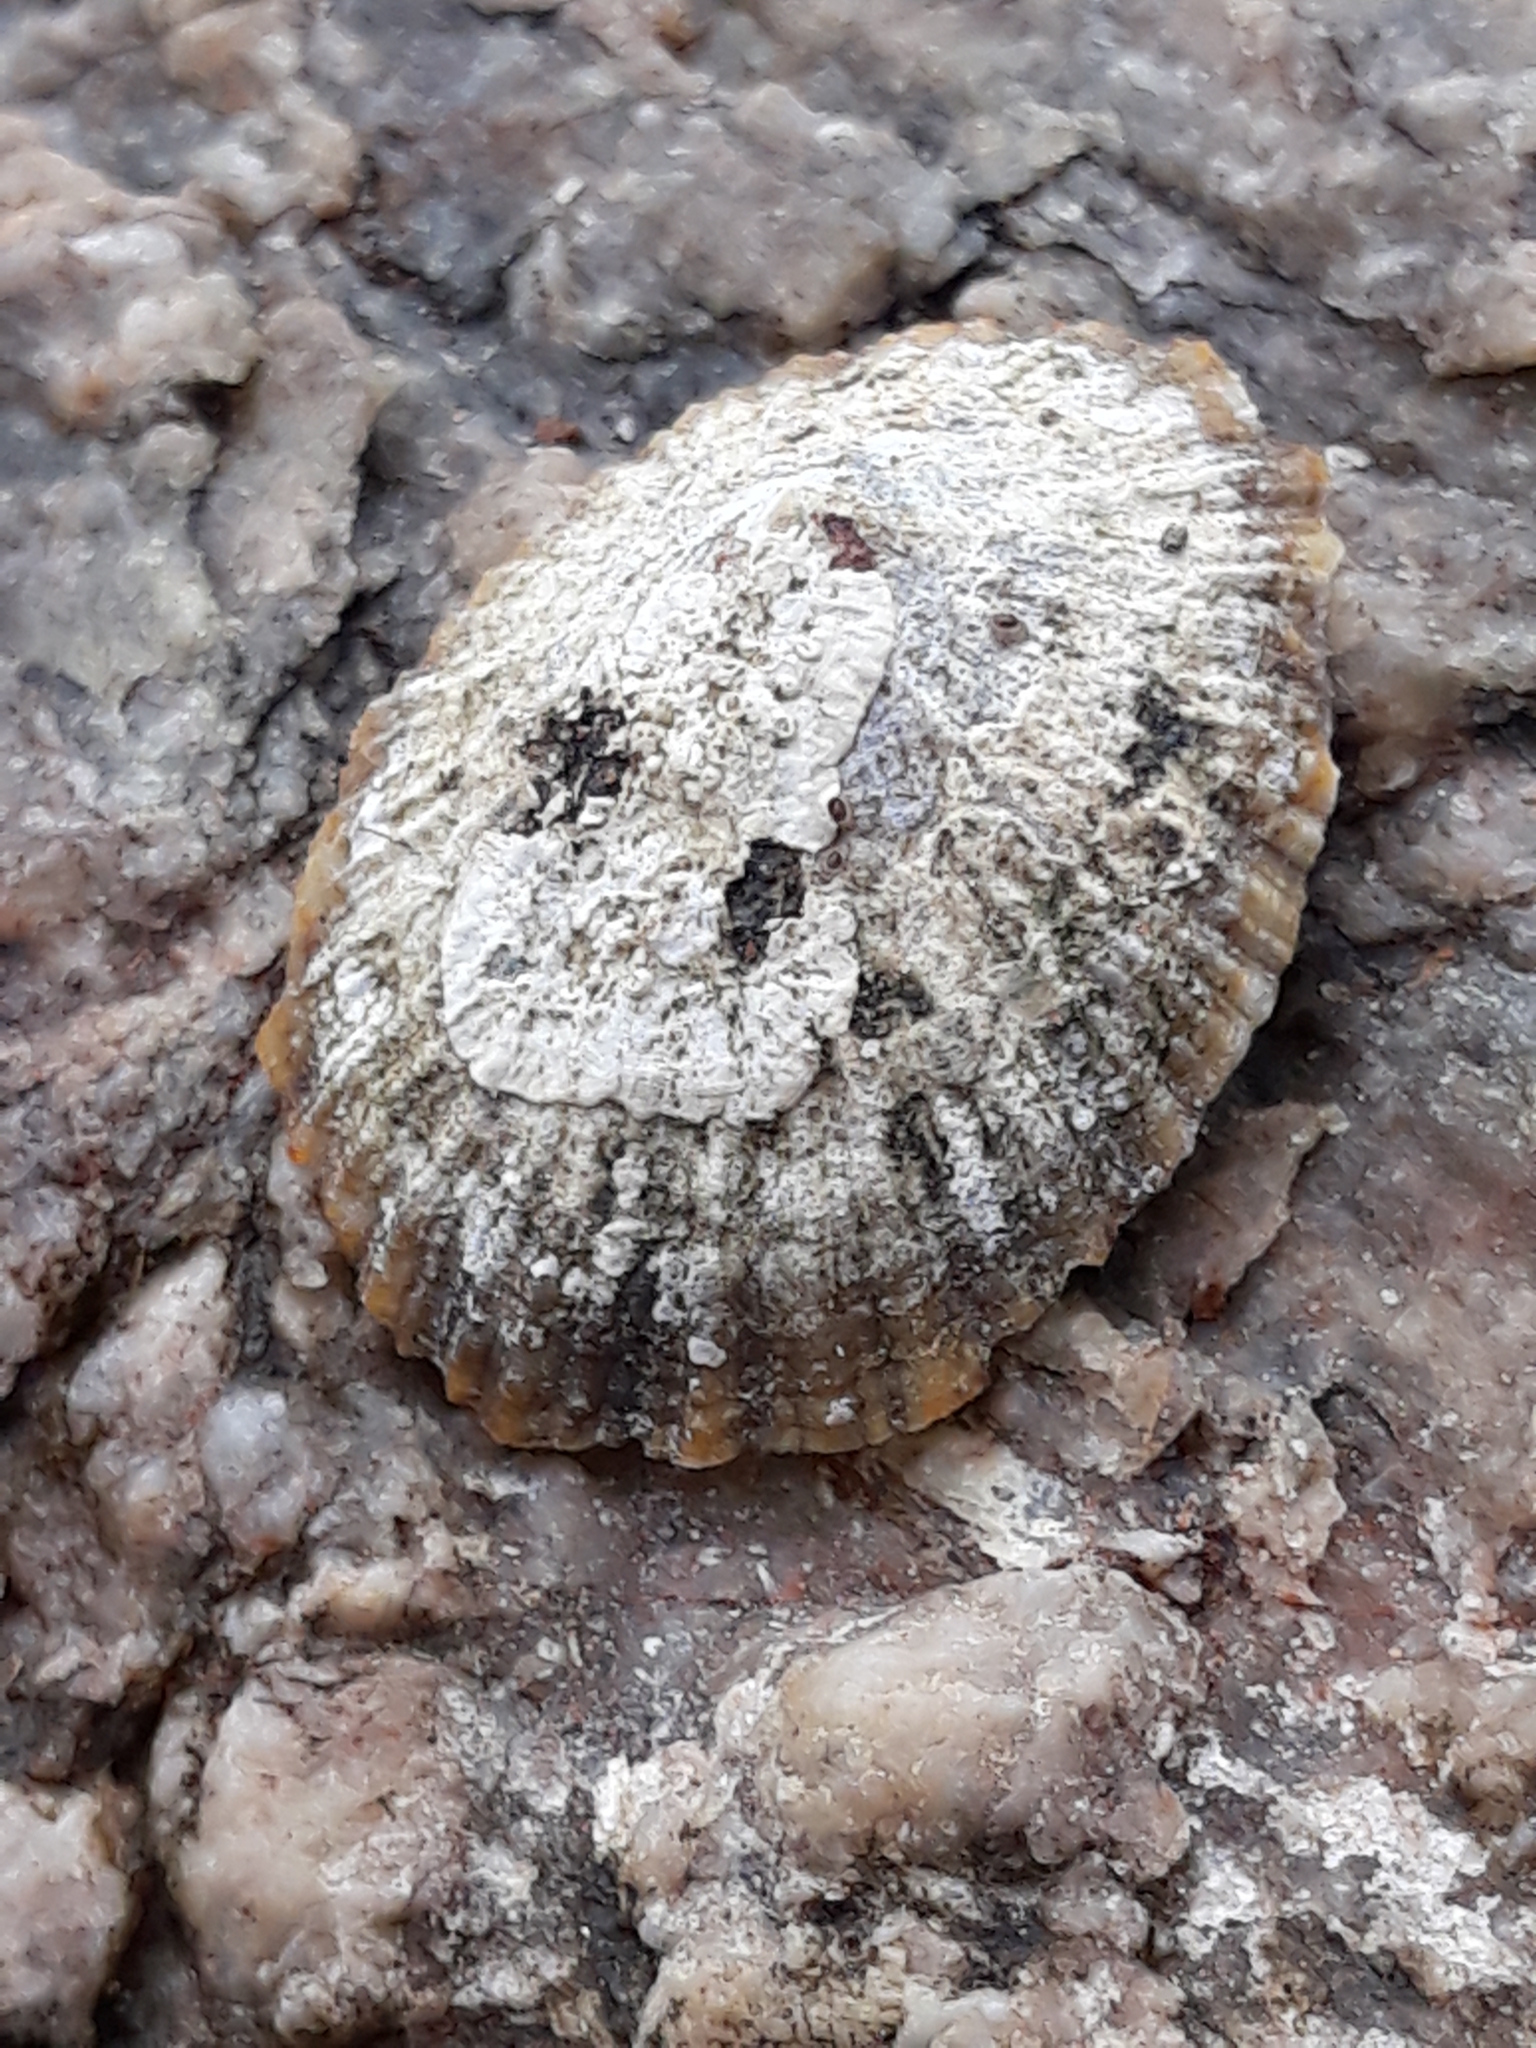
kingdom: Animalia
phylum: Mollusca
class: Gastropoda
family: Patellidae
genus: Patella
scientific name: Patella rustica
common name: Lusitanian limpet
